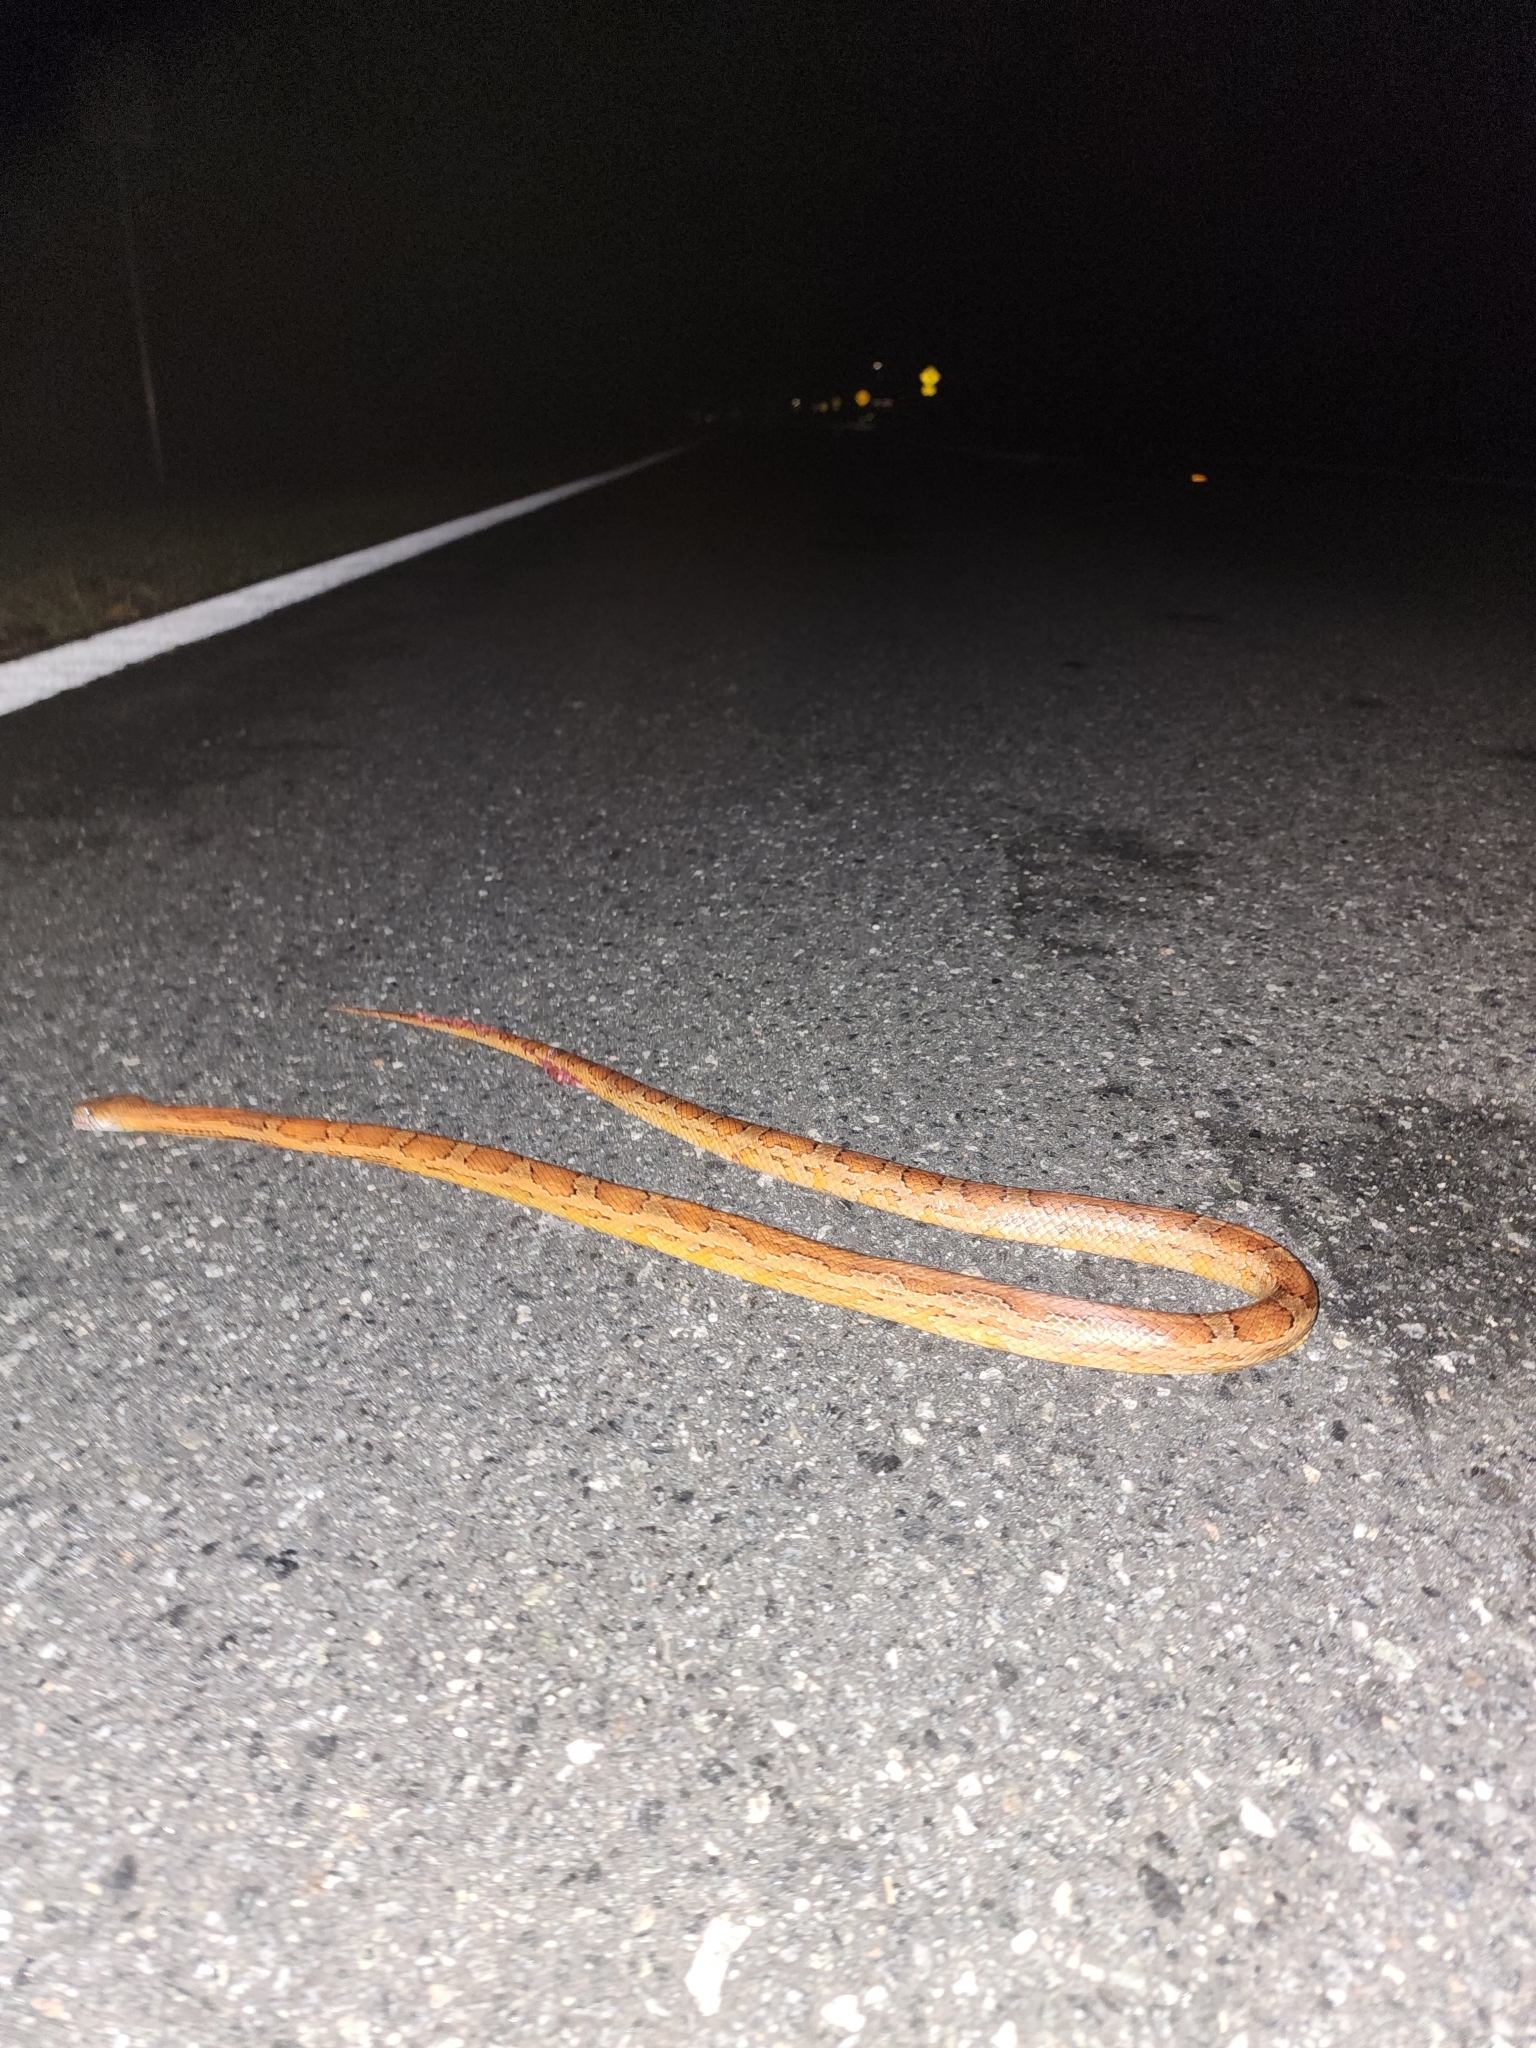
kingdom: Animalia
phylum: Chordata
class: Squamata
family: Colubridae
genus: Pantherophis
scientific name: Pantherophis guttatus
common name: Red cornsnake
